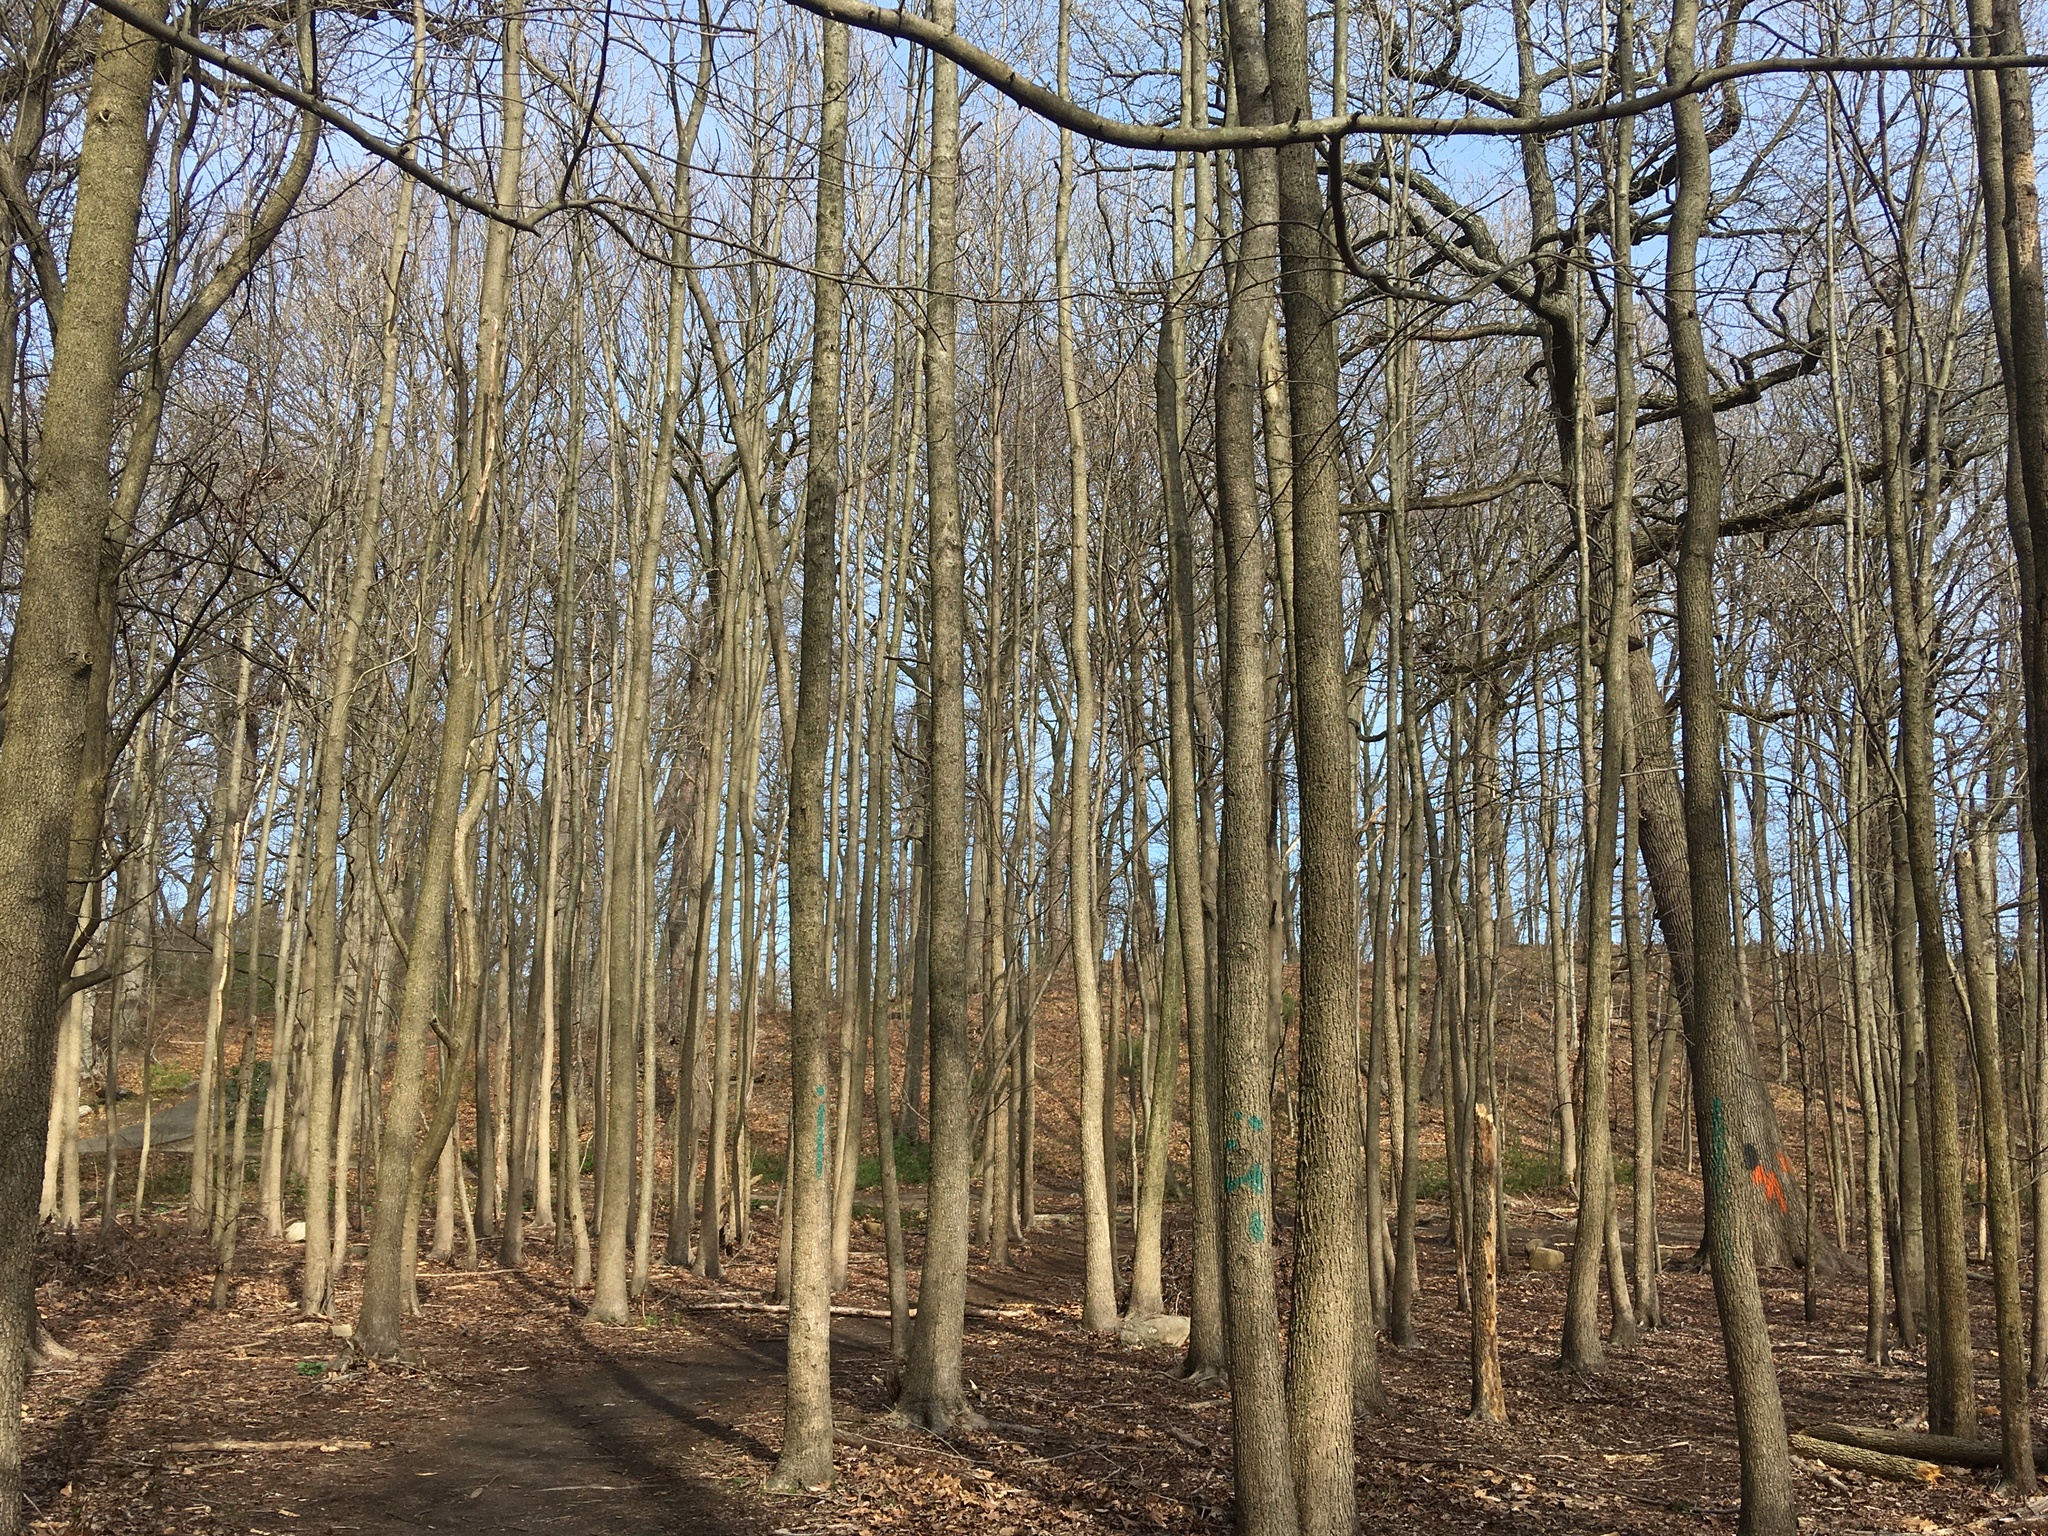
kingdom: Plantae
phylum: Tracheophyta
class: Magnoliopsida
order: Saxifragales
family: Altingiaceae
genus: Liquidambar
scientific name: Liquidambar styraciflua
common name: Sweet gum
